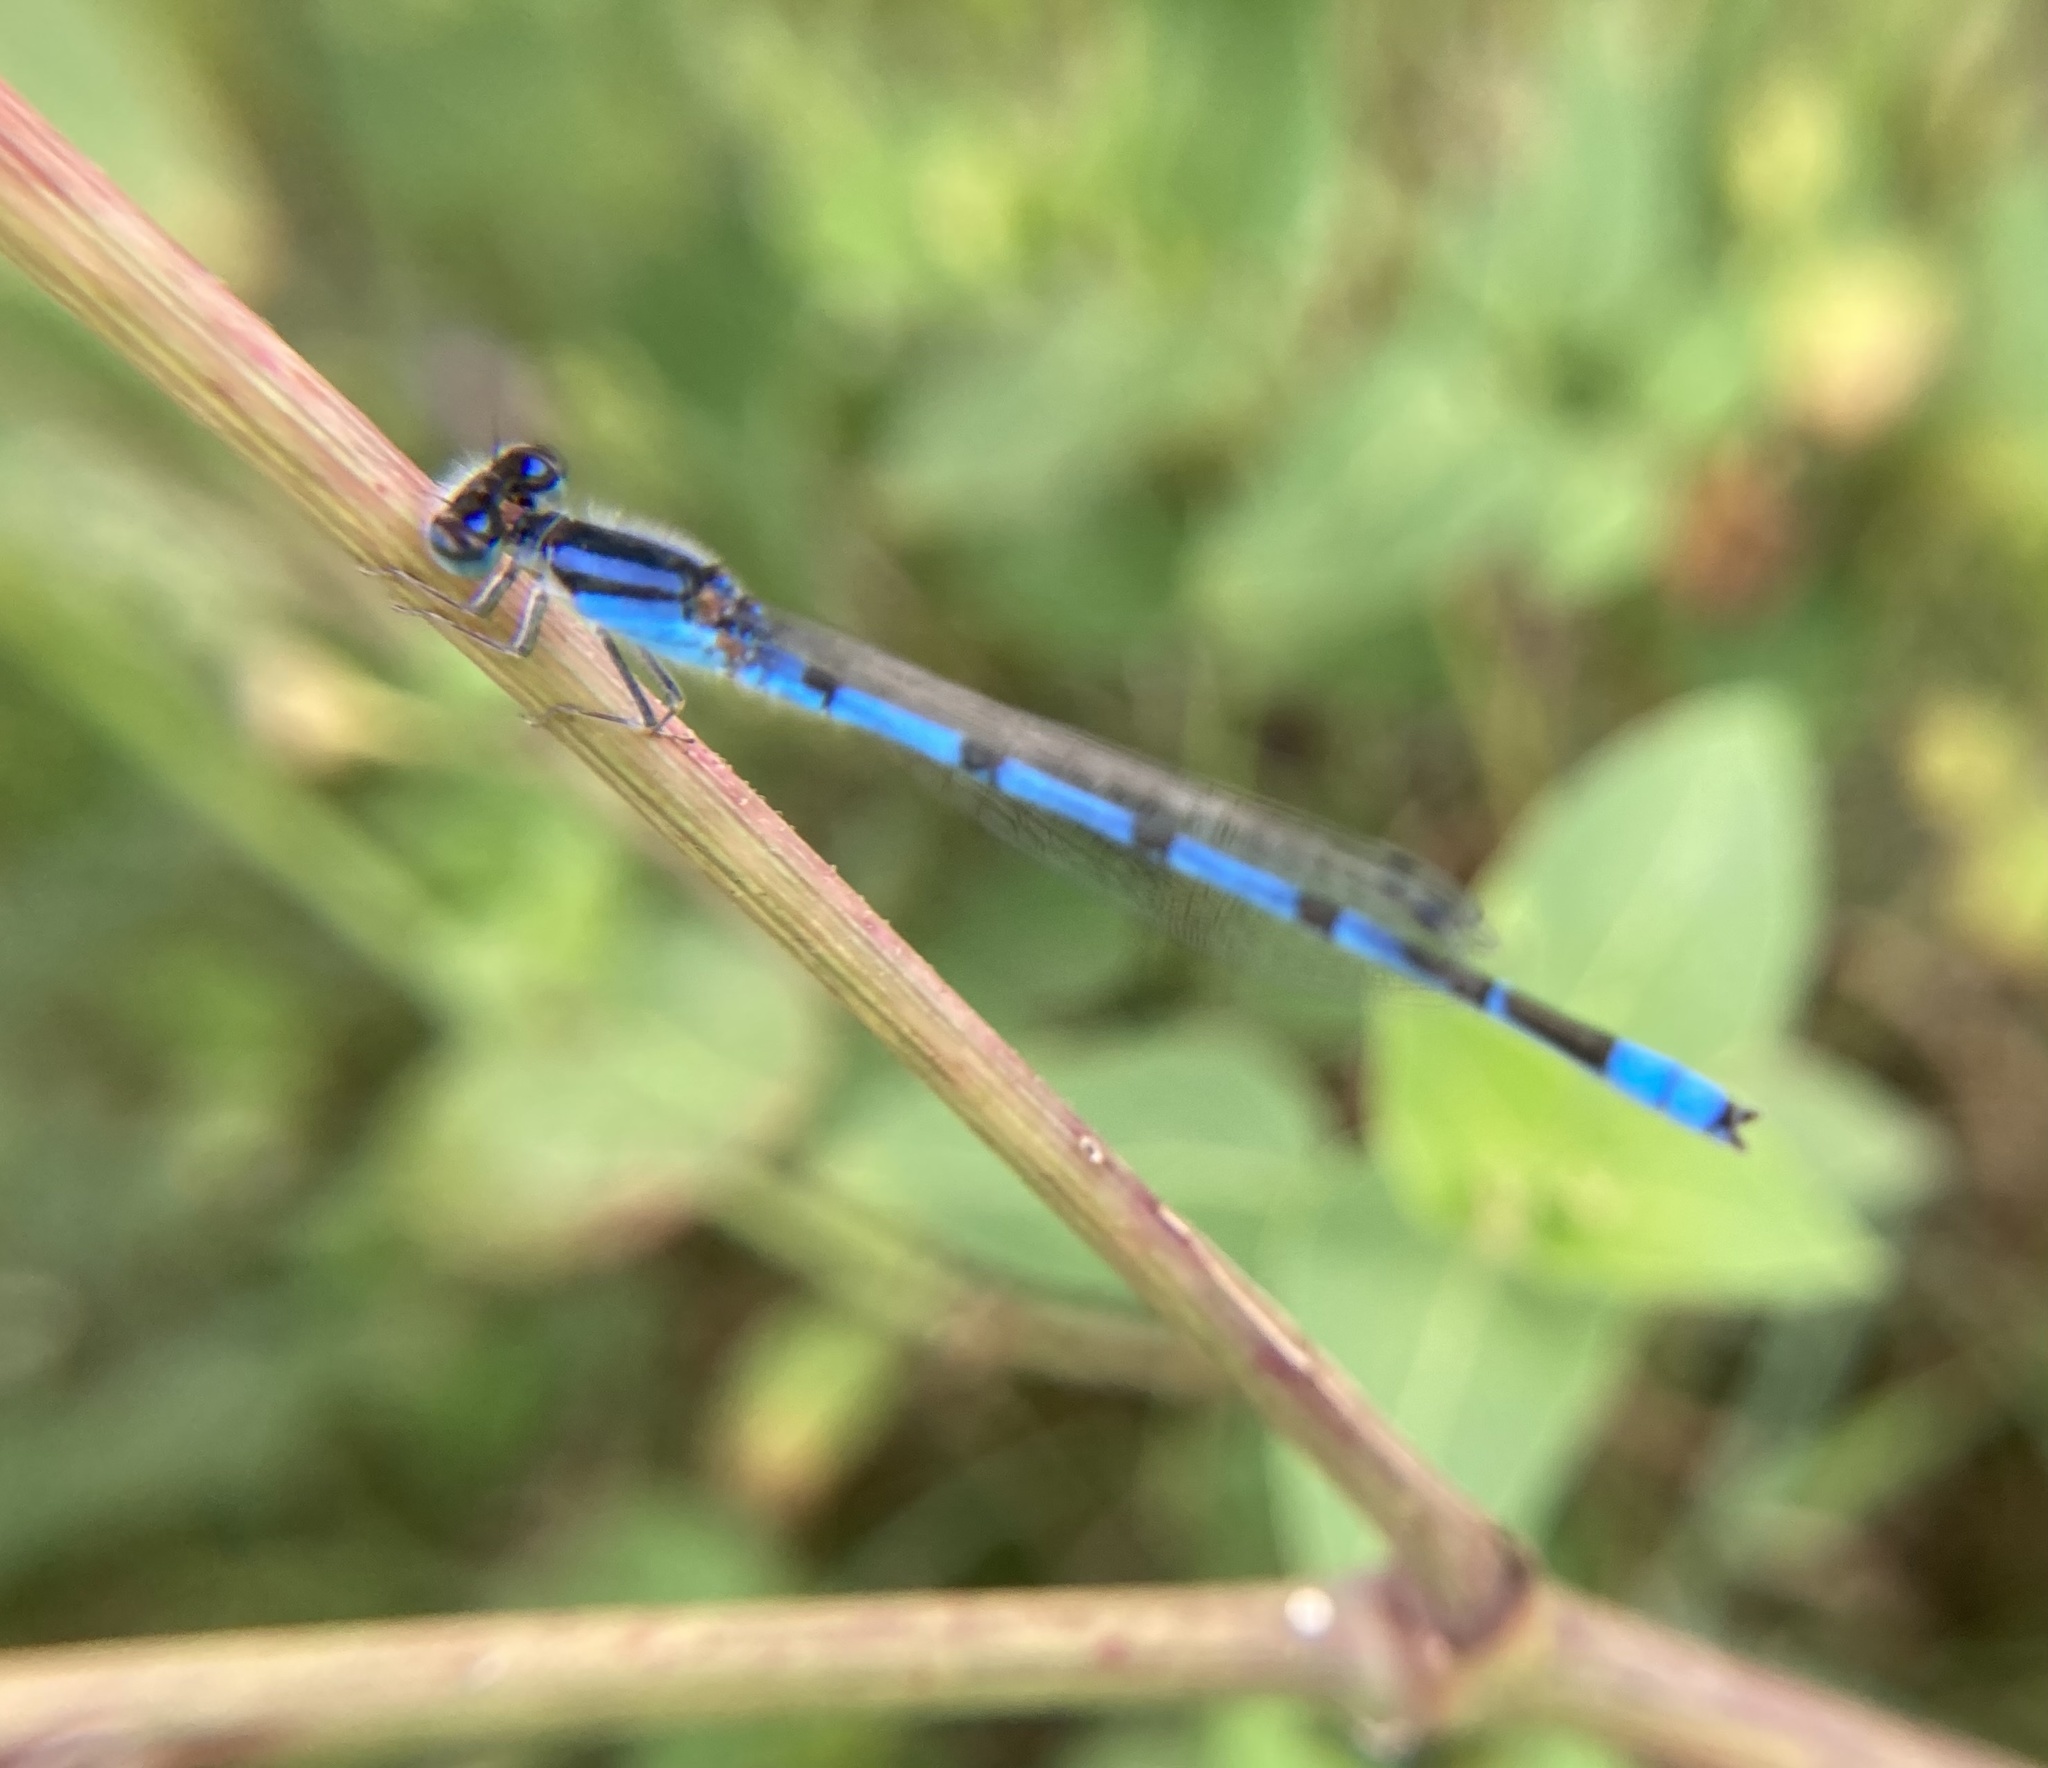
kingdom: Animalia
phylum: Arthropoda
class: Insecta
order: Odonata
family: Coenagrionidae
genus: Enallagma
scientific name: Enallagma civile
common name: Damselfly
